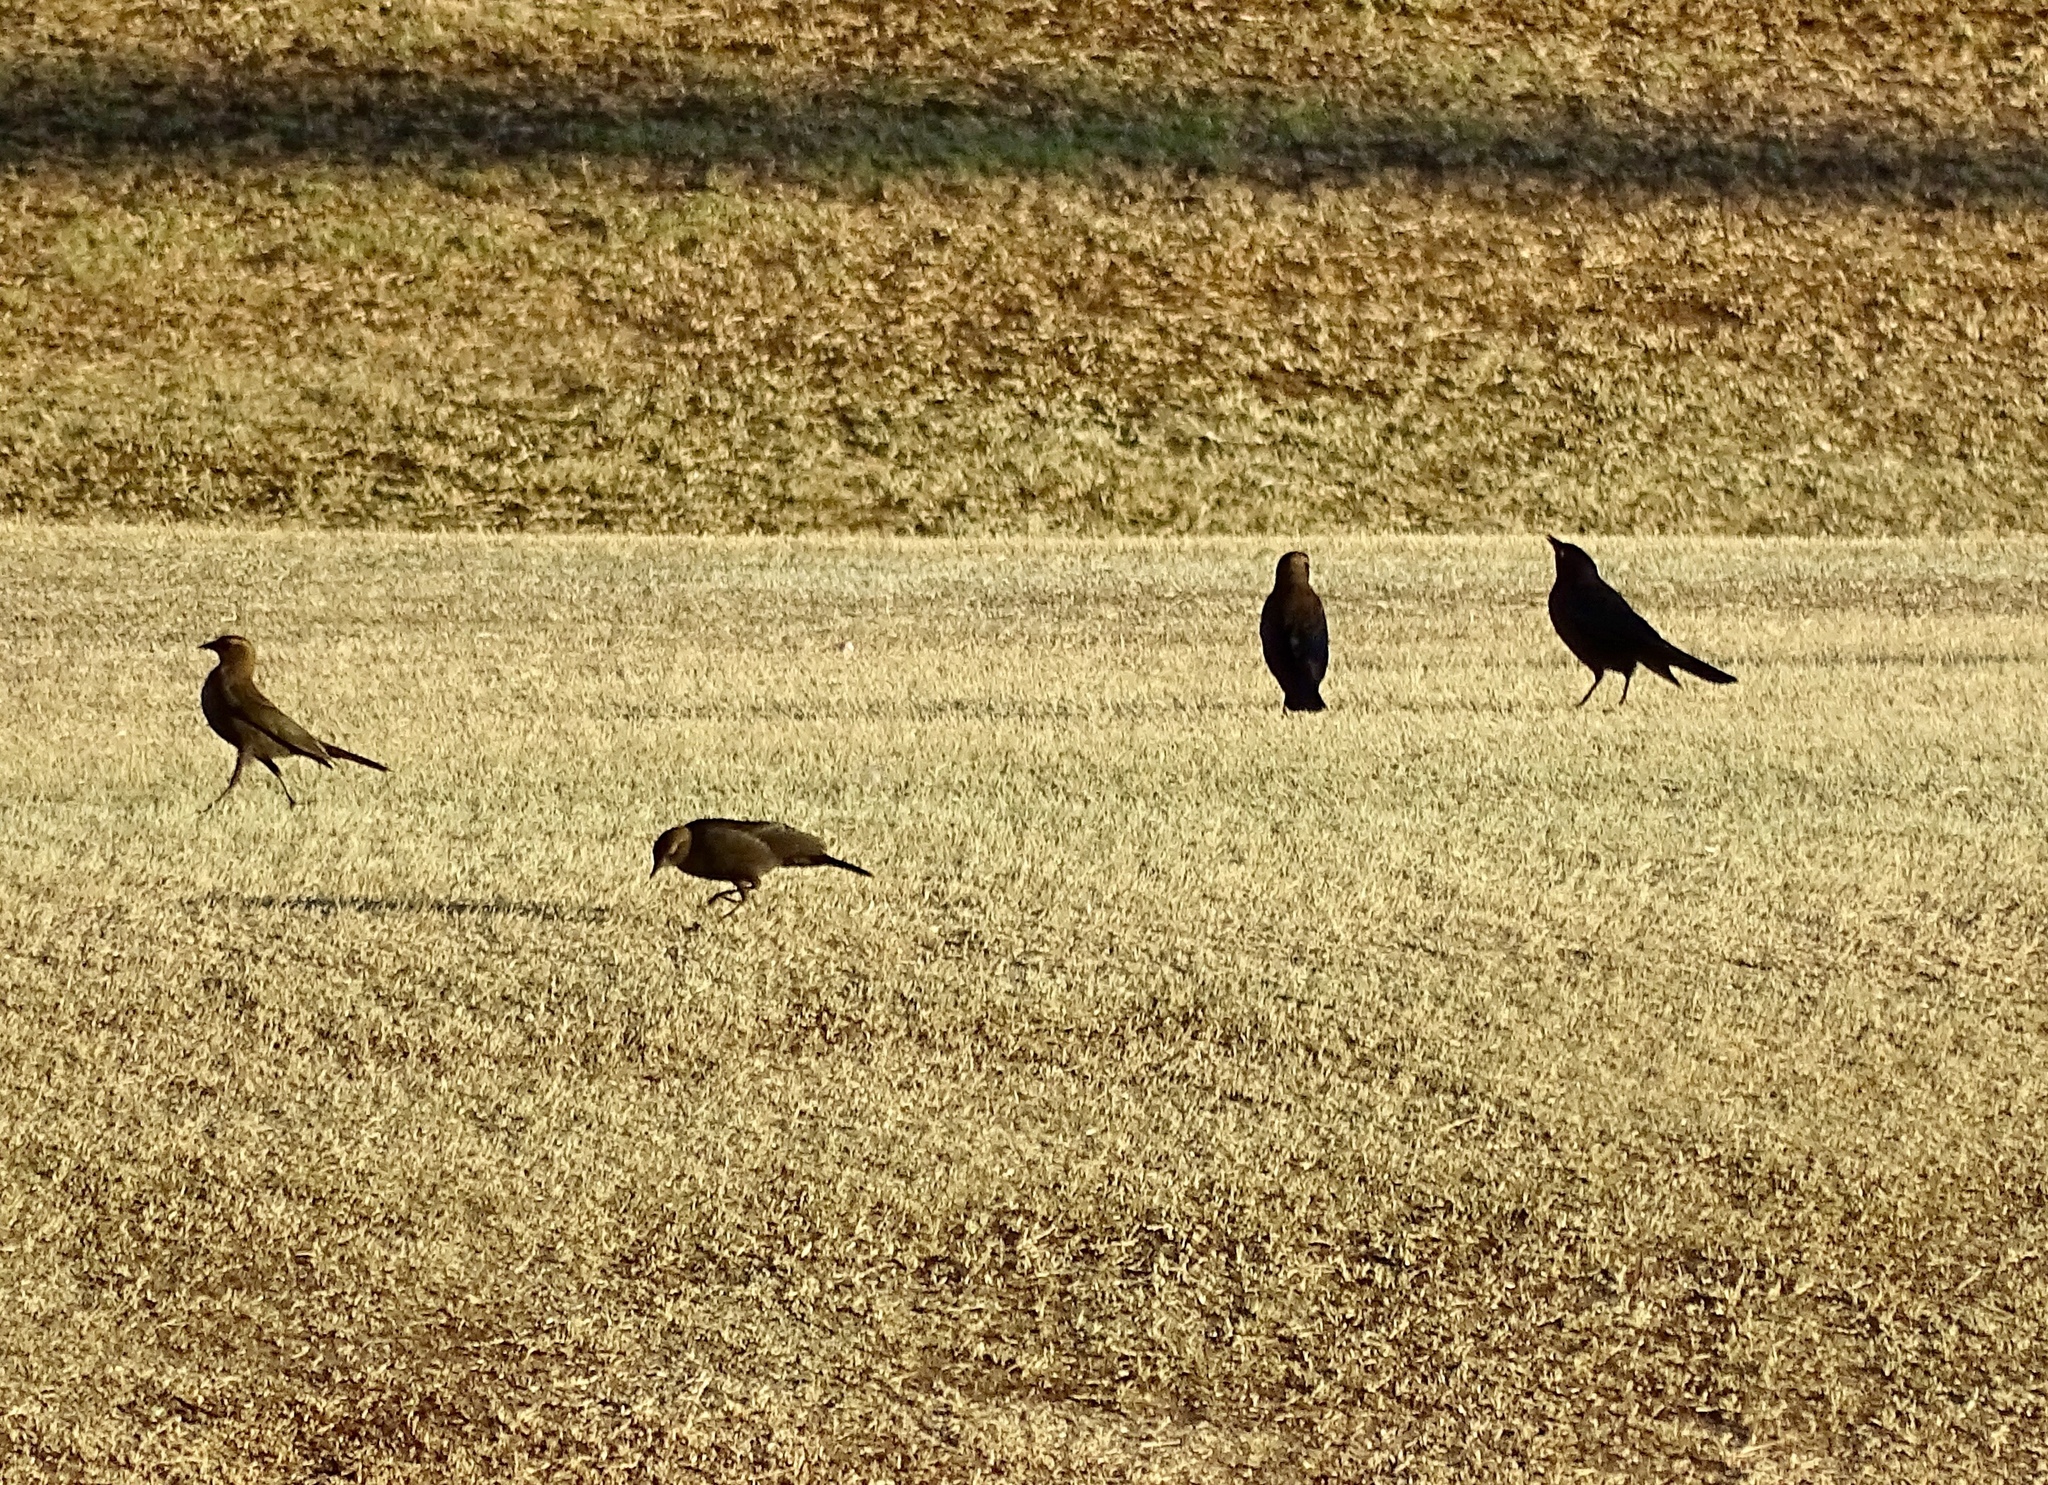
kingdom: Animalia
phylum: Chordata
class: Aves
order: Passeriformes
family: Icteridae
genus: Euphagus
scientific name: Euphagus cyanocephalus
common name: Brewer's blackbird
